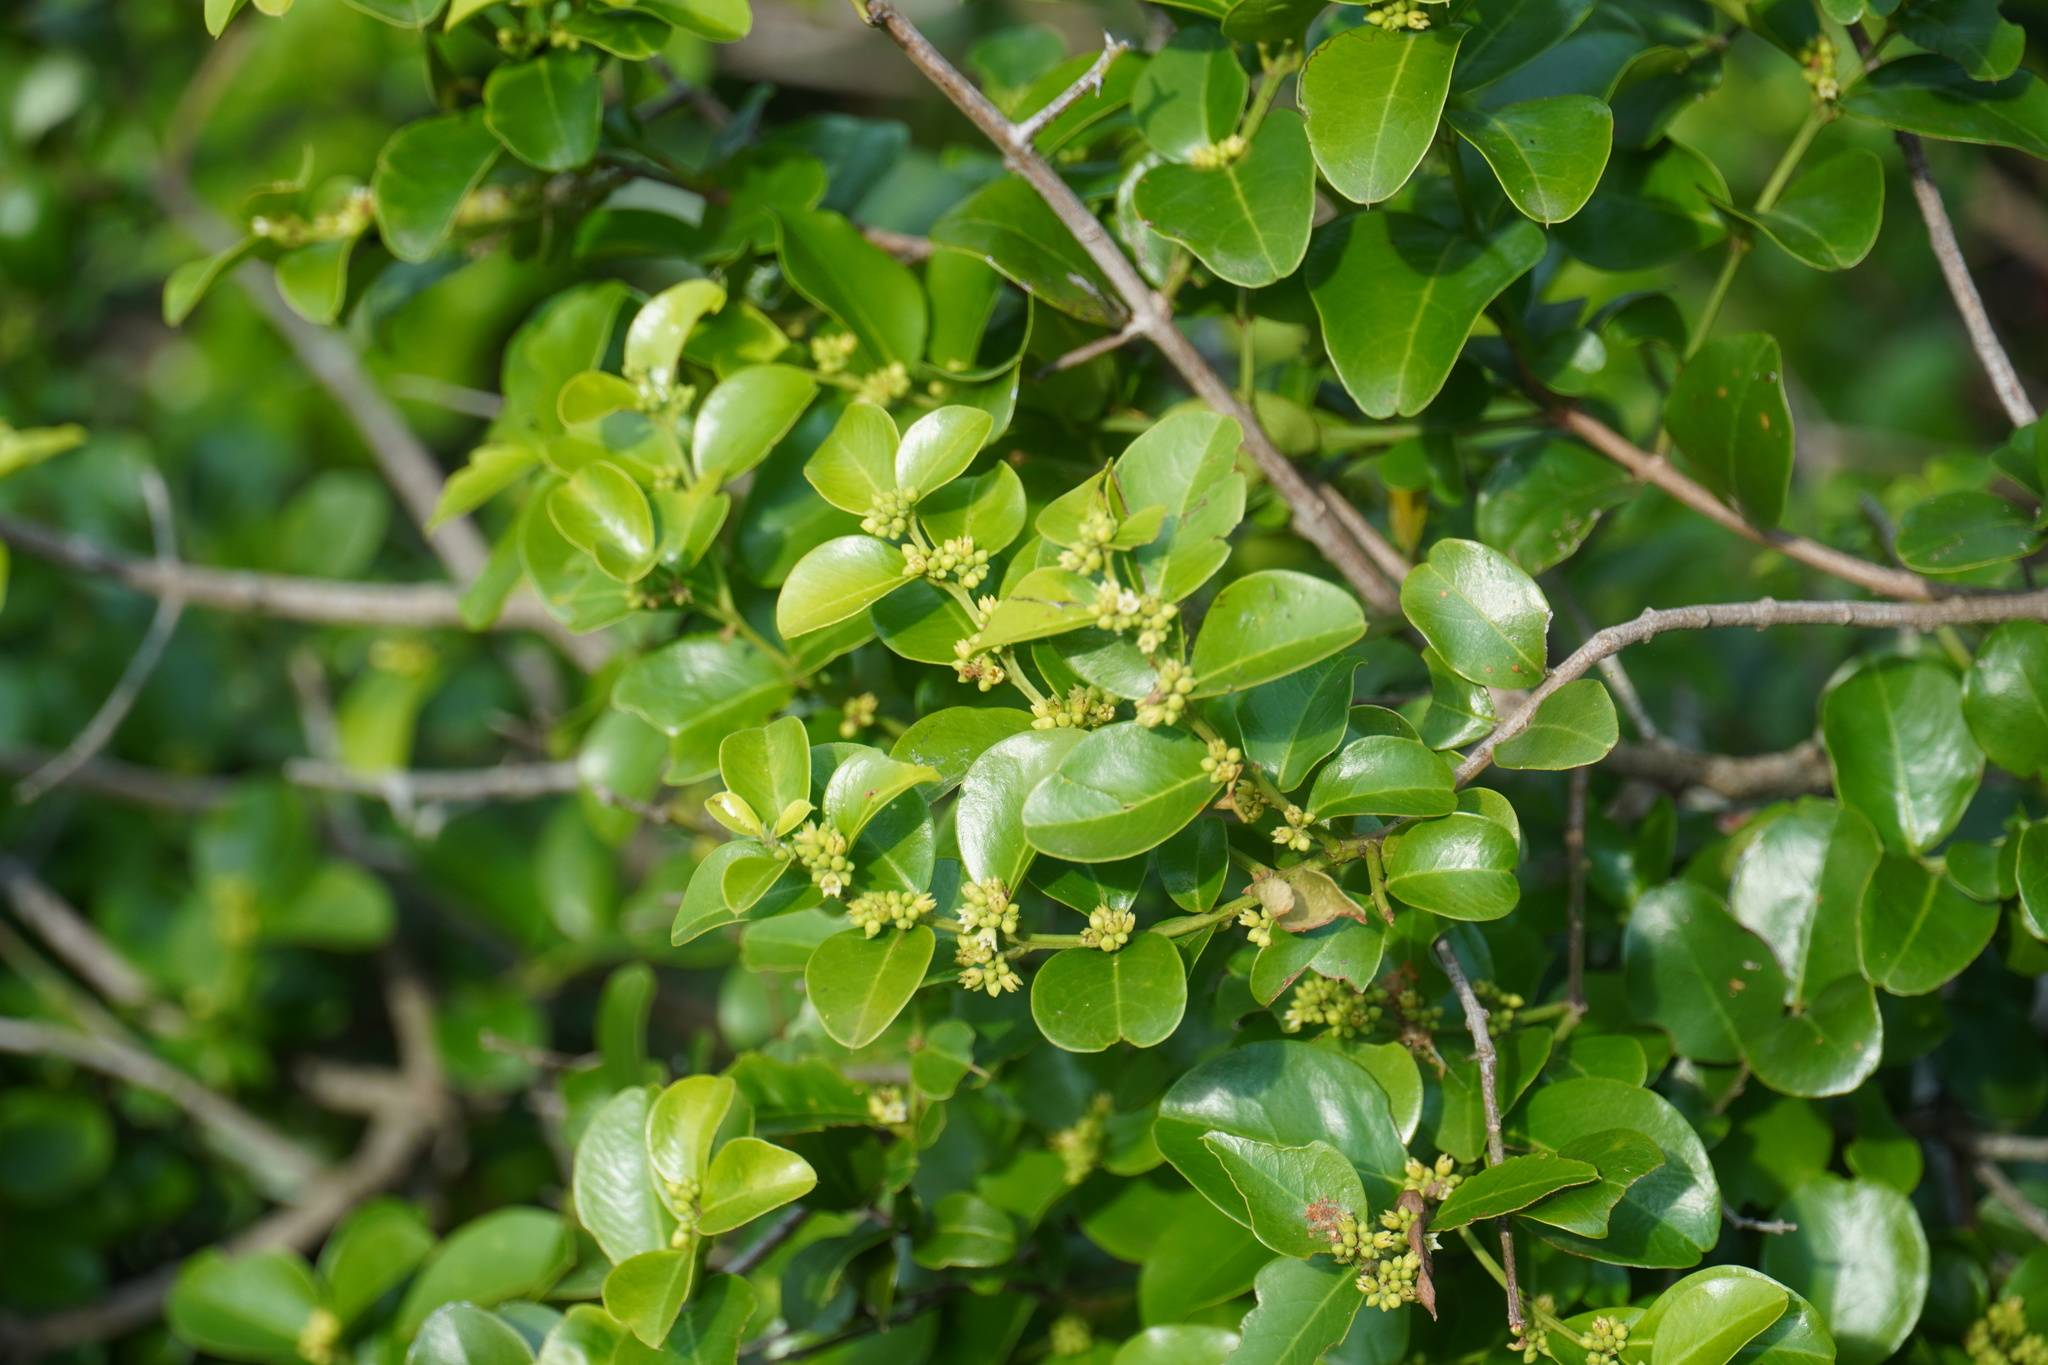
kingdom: Plantae
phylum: Tracheophyta
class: Magnoliopsida
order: Rosales
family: Rhamnaceae
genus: Scutia
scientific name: Scutia myrtina
